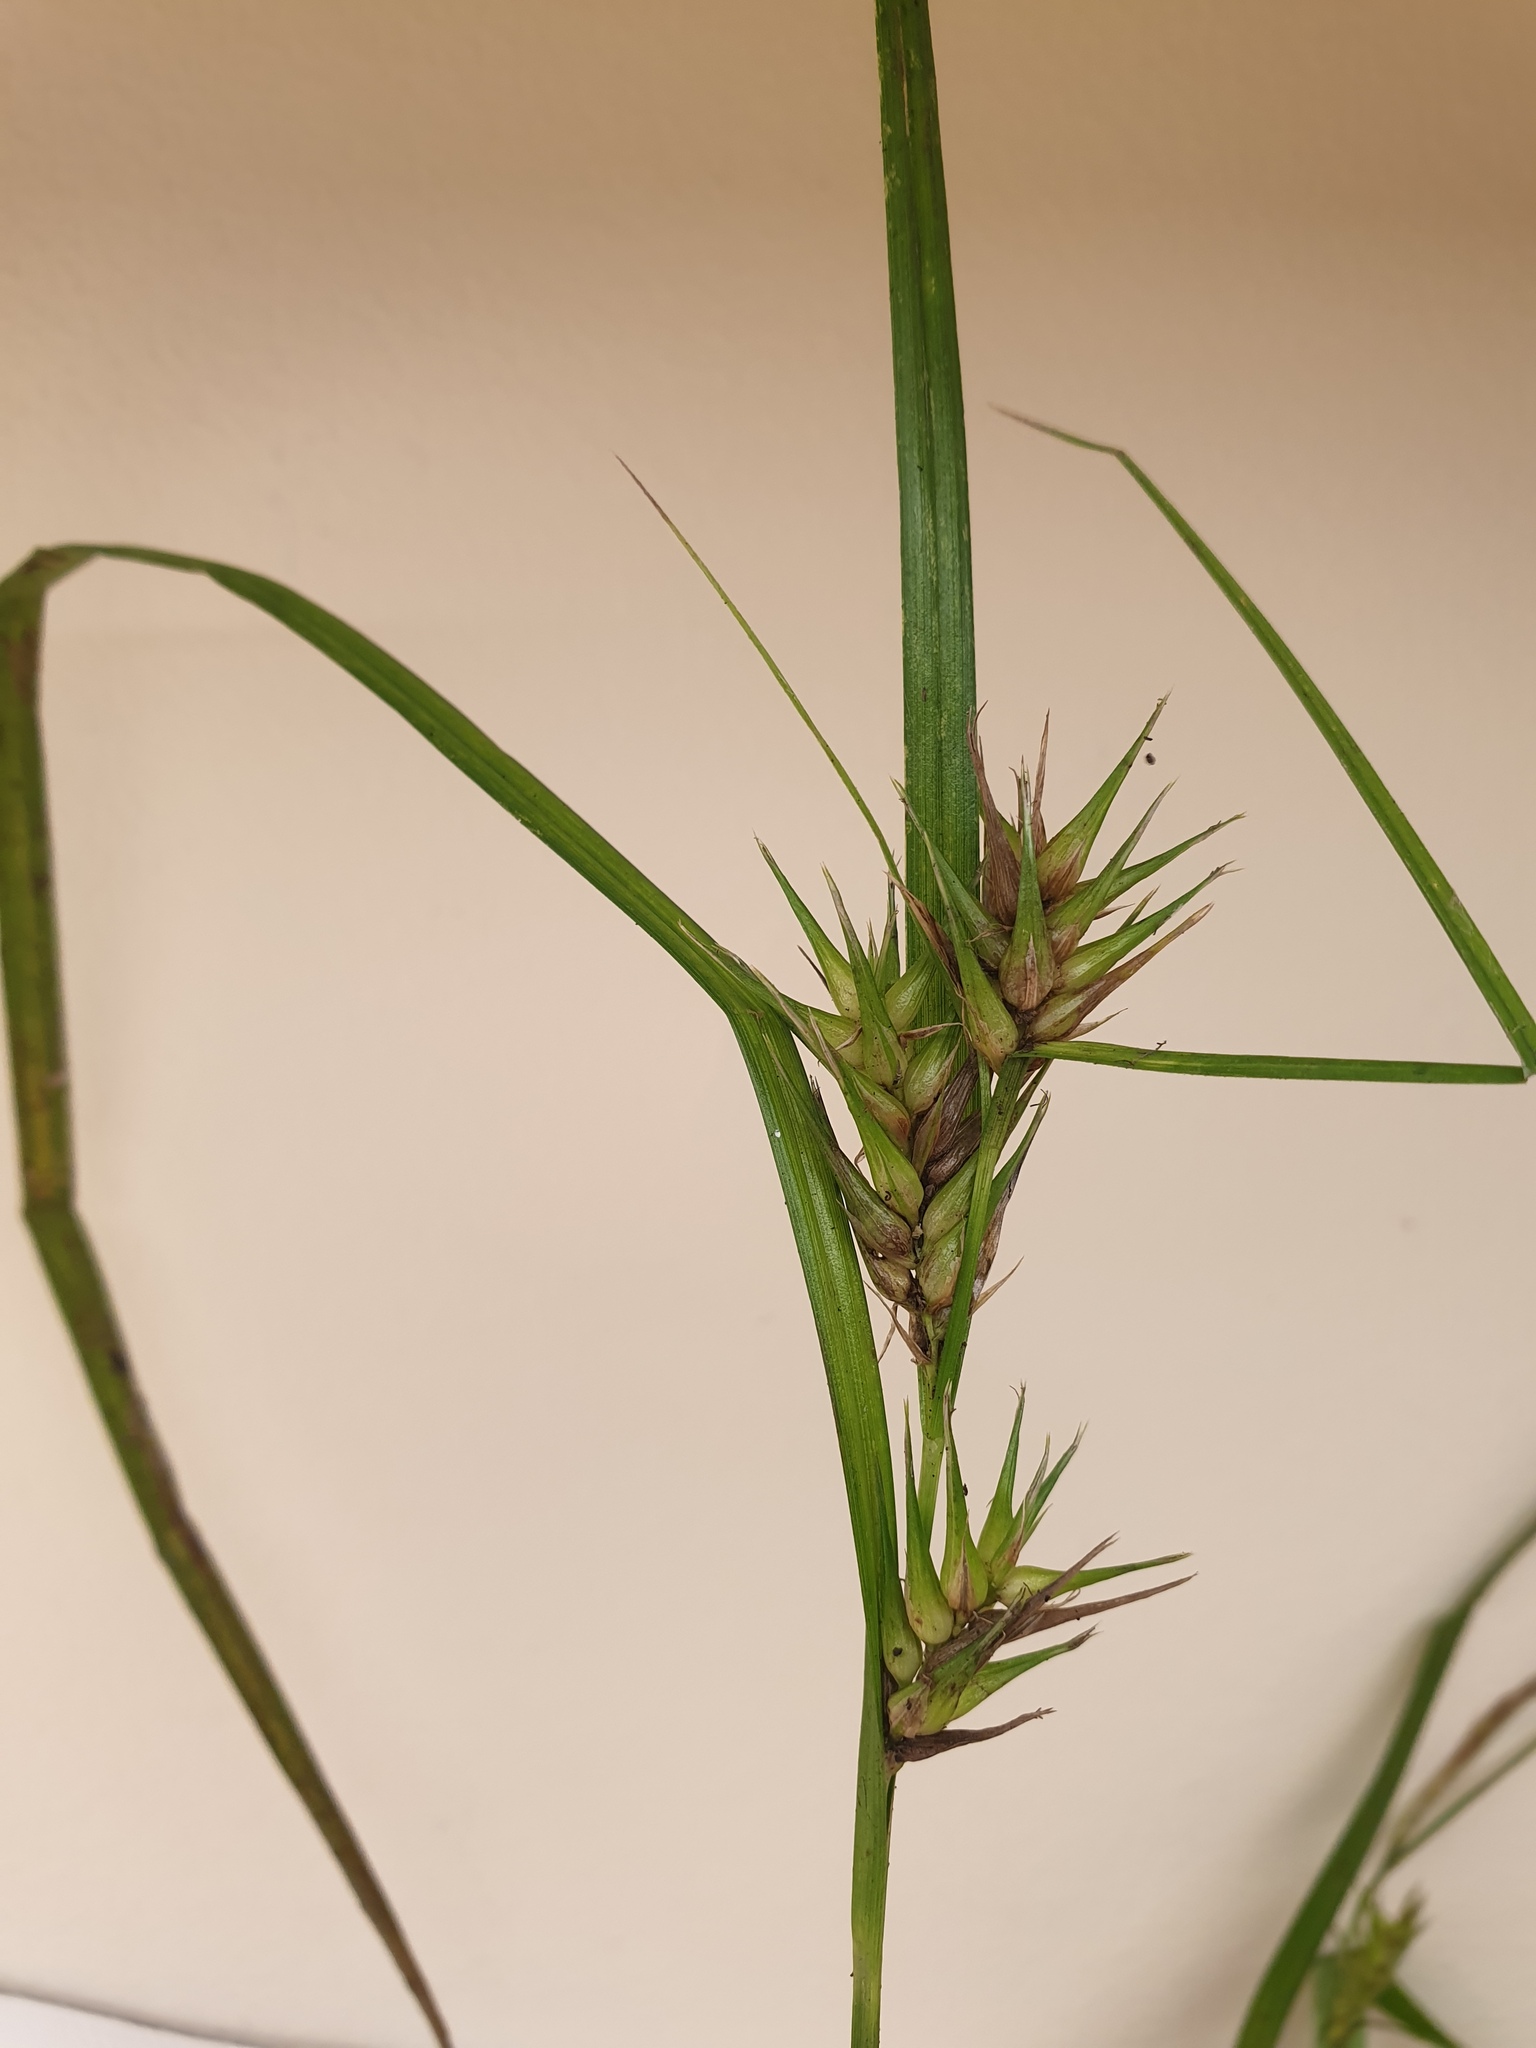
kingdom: Plantae
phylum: Tracheophyta
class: Liliopsida
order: Poales
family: Cyperaceae
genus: Carex
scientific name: Carex lupulina
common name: Hop sedge
